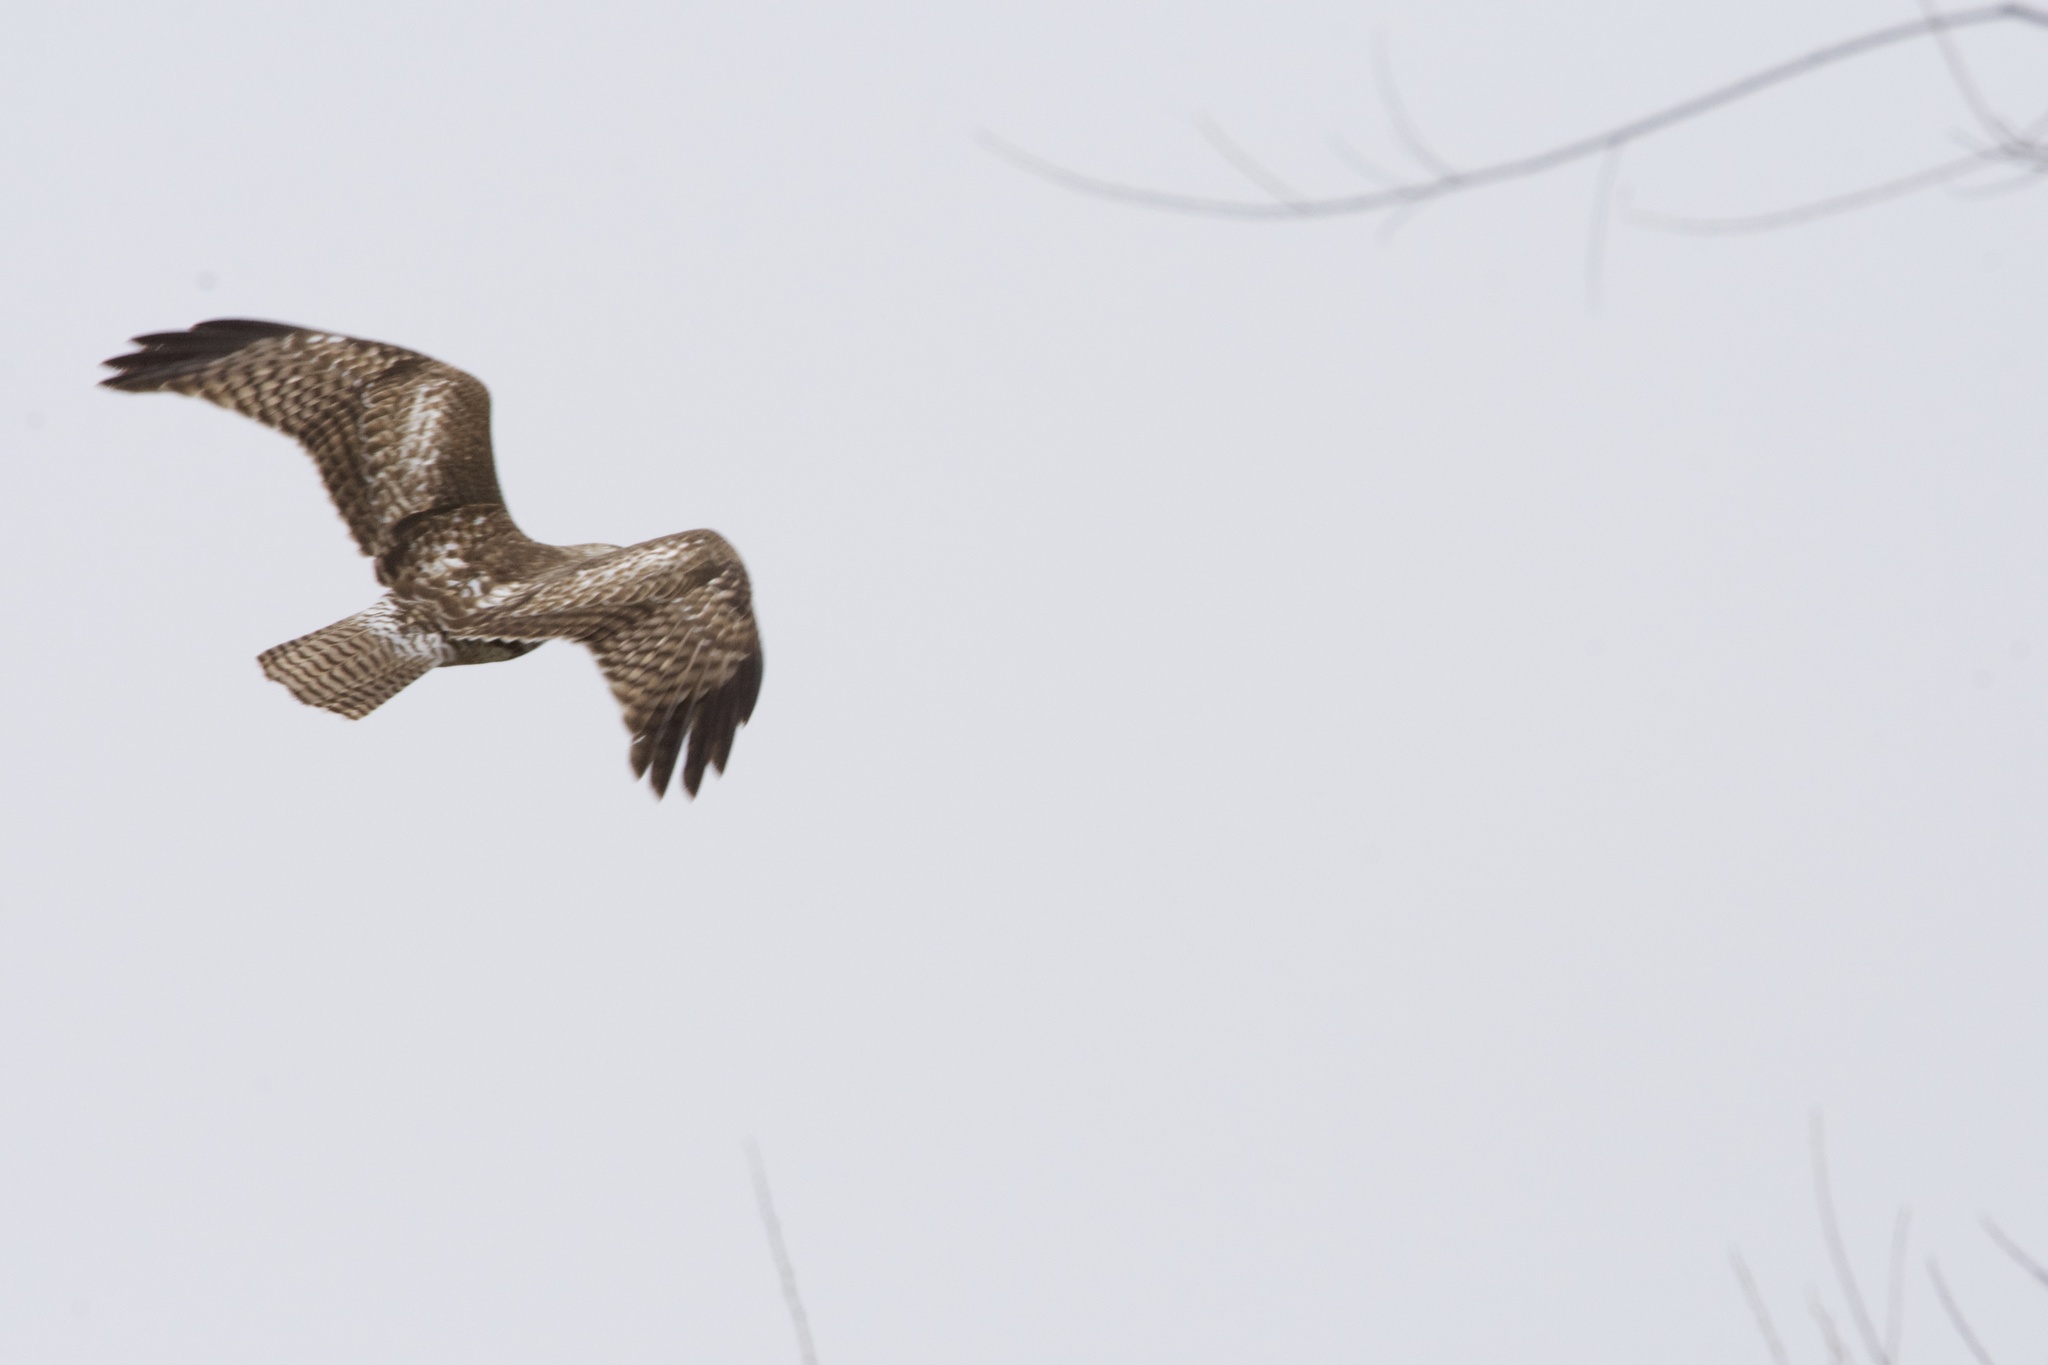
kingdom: Animalia
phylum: Chordata
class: Aves
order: Accipitriformes
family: Accipitridae
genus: Buteo
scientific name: Buteo jamaicensis
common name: Red-tailed hawk
